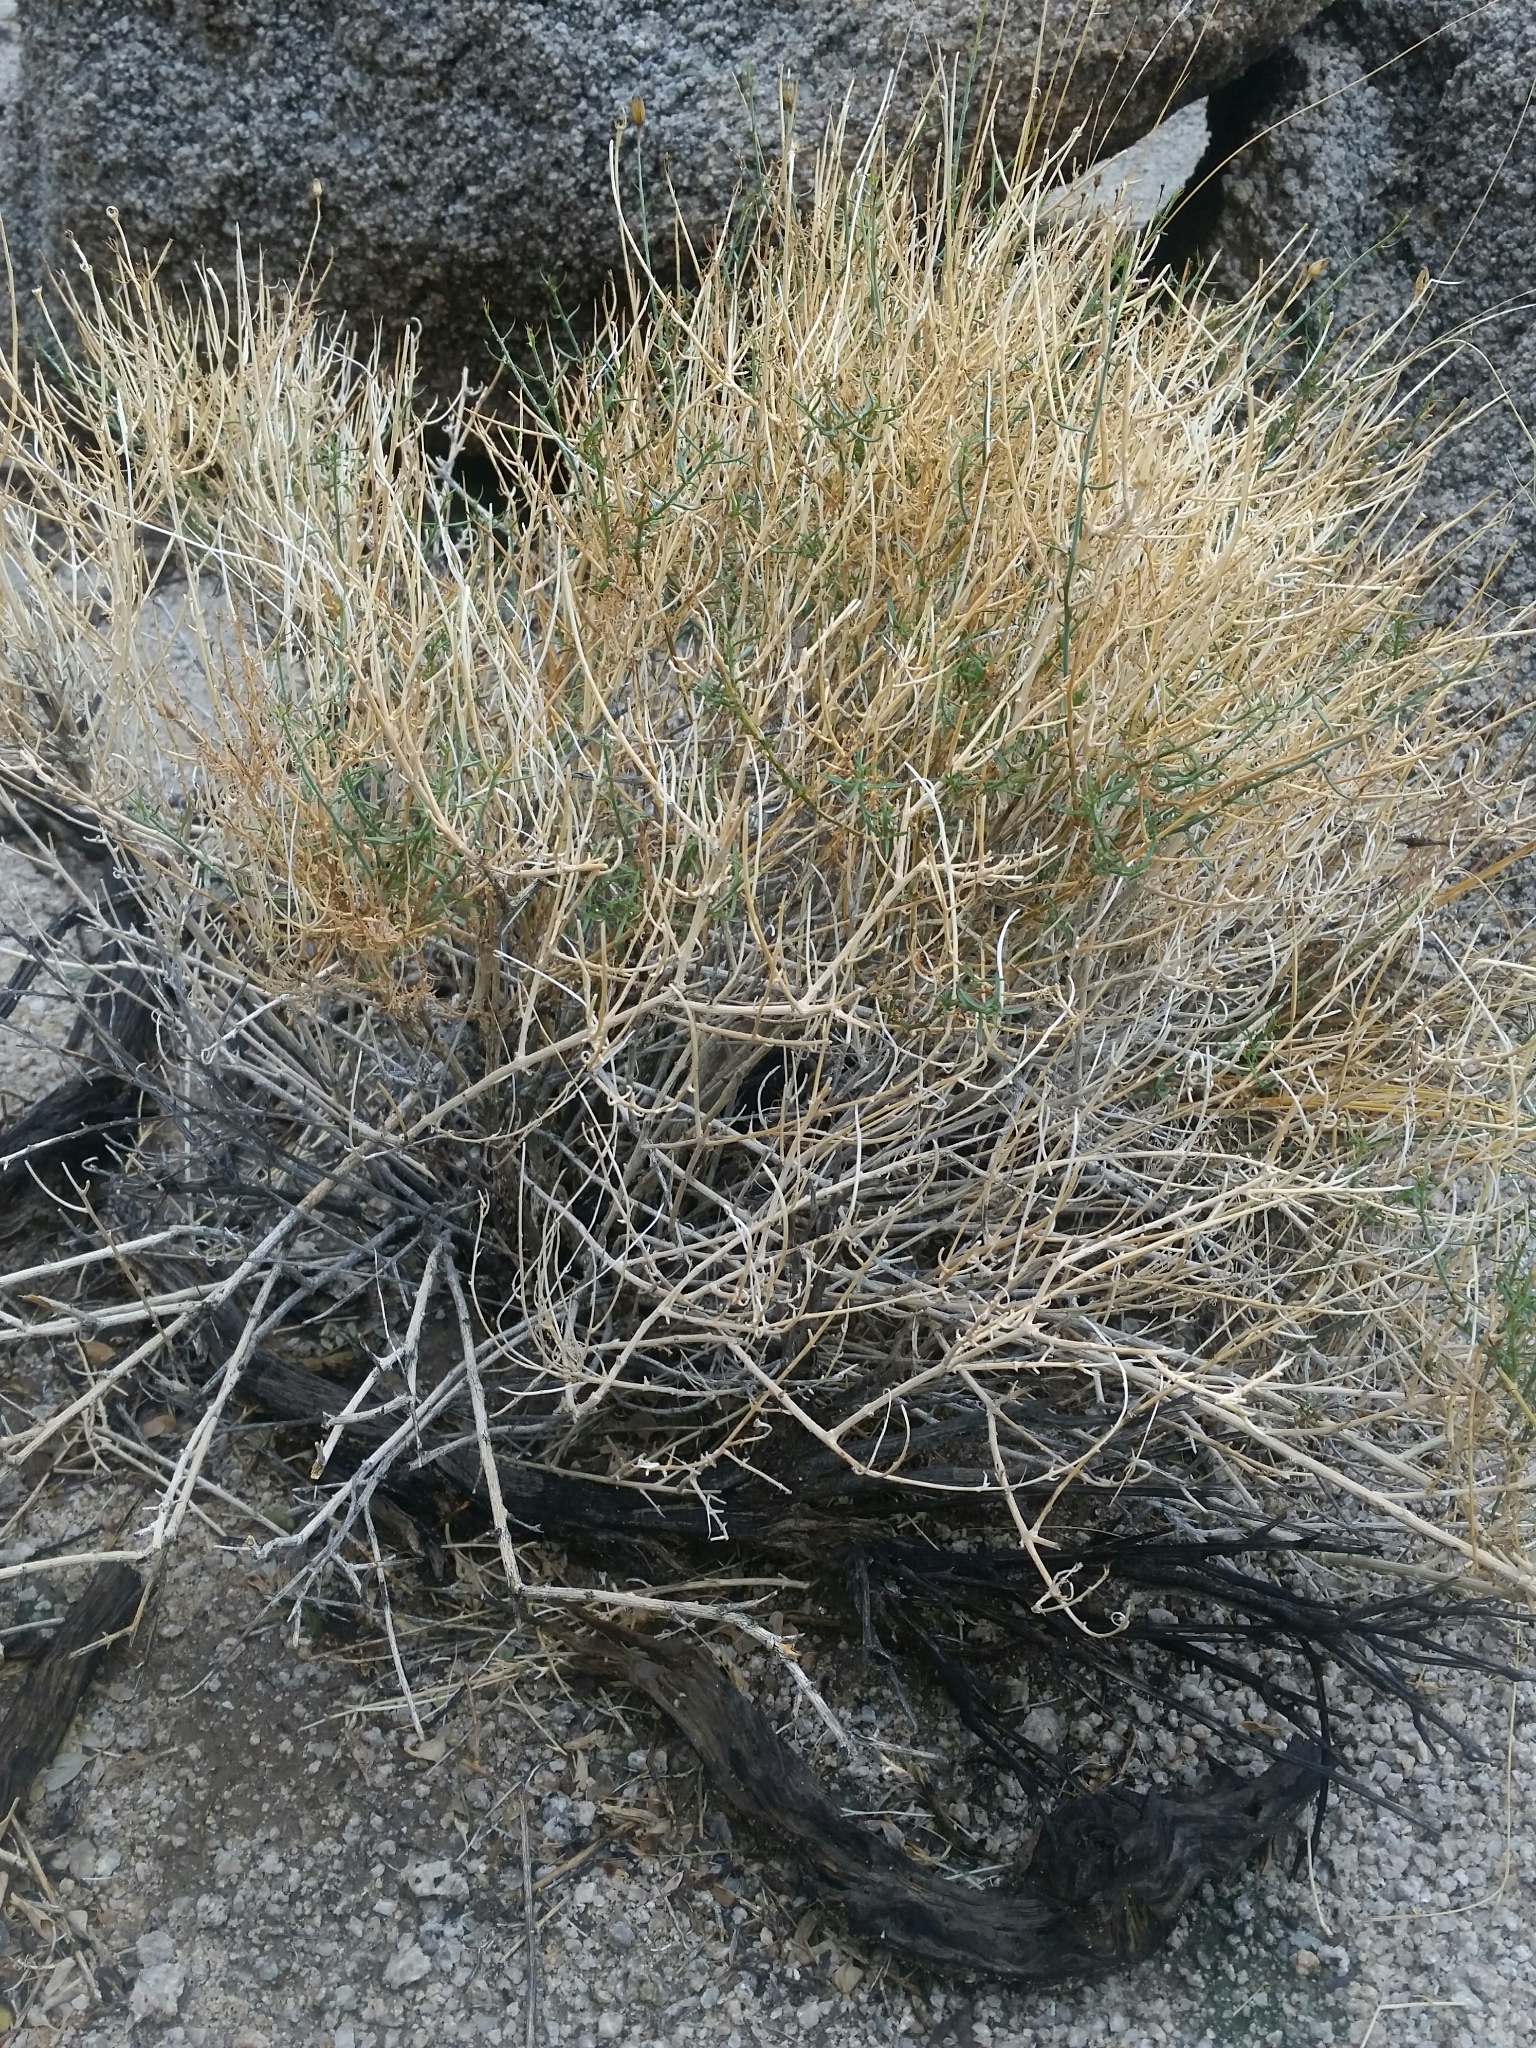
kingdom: Plantae
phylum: Tracheophyta
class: Magnoliopsida
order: Asterales
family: Asteraceae
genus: Bebbia
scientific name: Bebbia juncea
